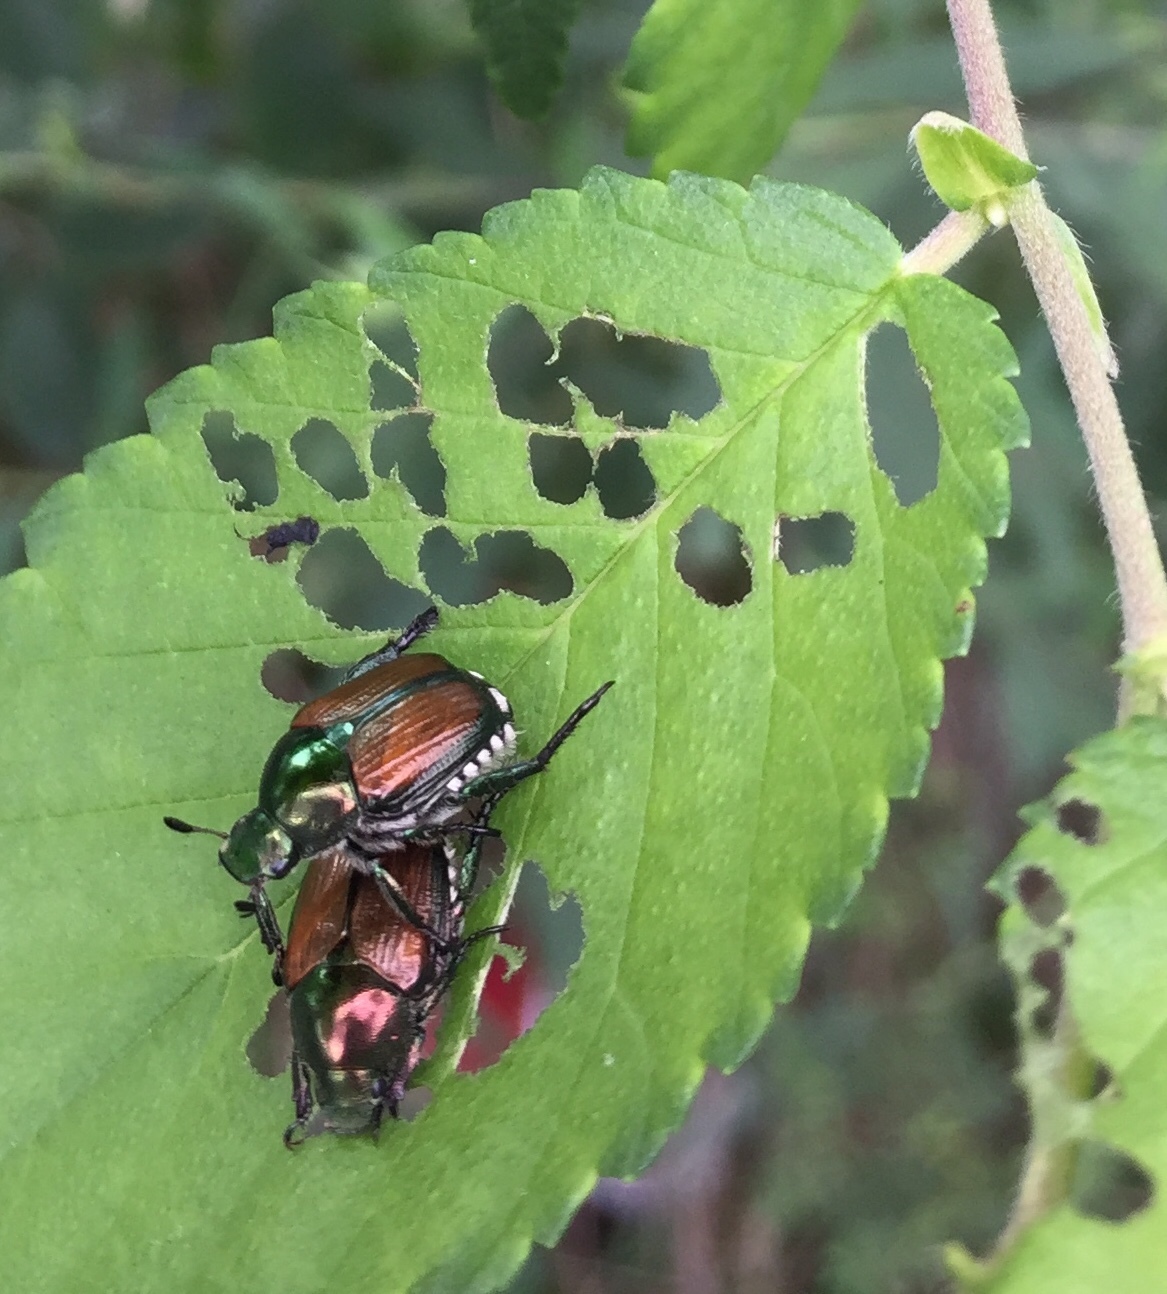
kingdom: Animalia
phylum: Arthropoda
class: Insecta
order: Coleoptera
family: Scarabaeidae
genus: Popillia
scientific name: Popillia japonica
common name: Japanese beetle
